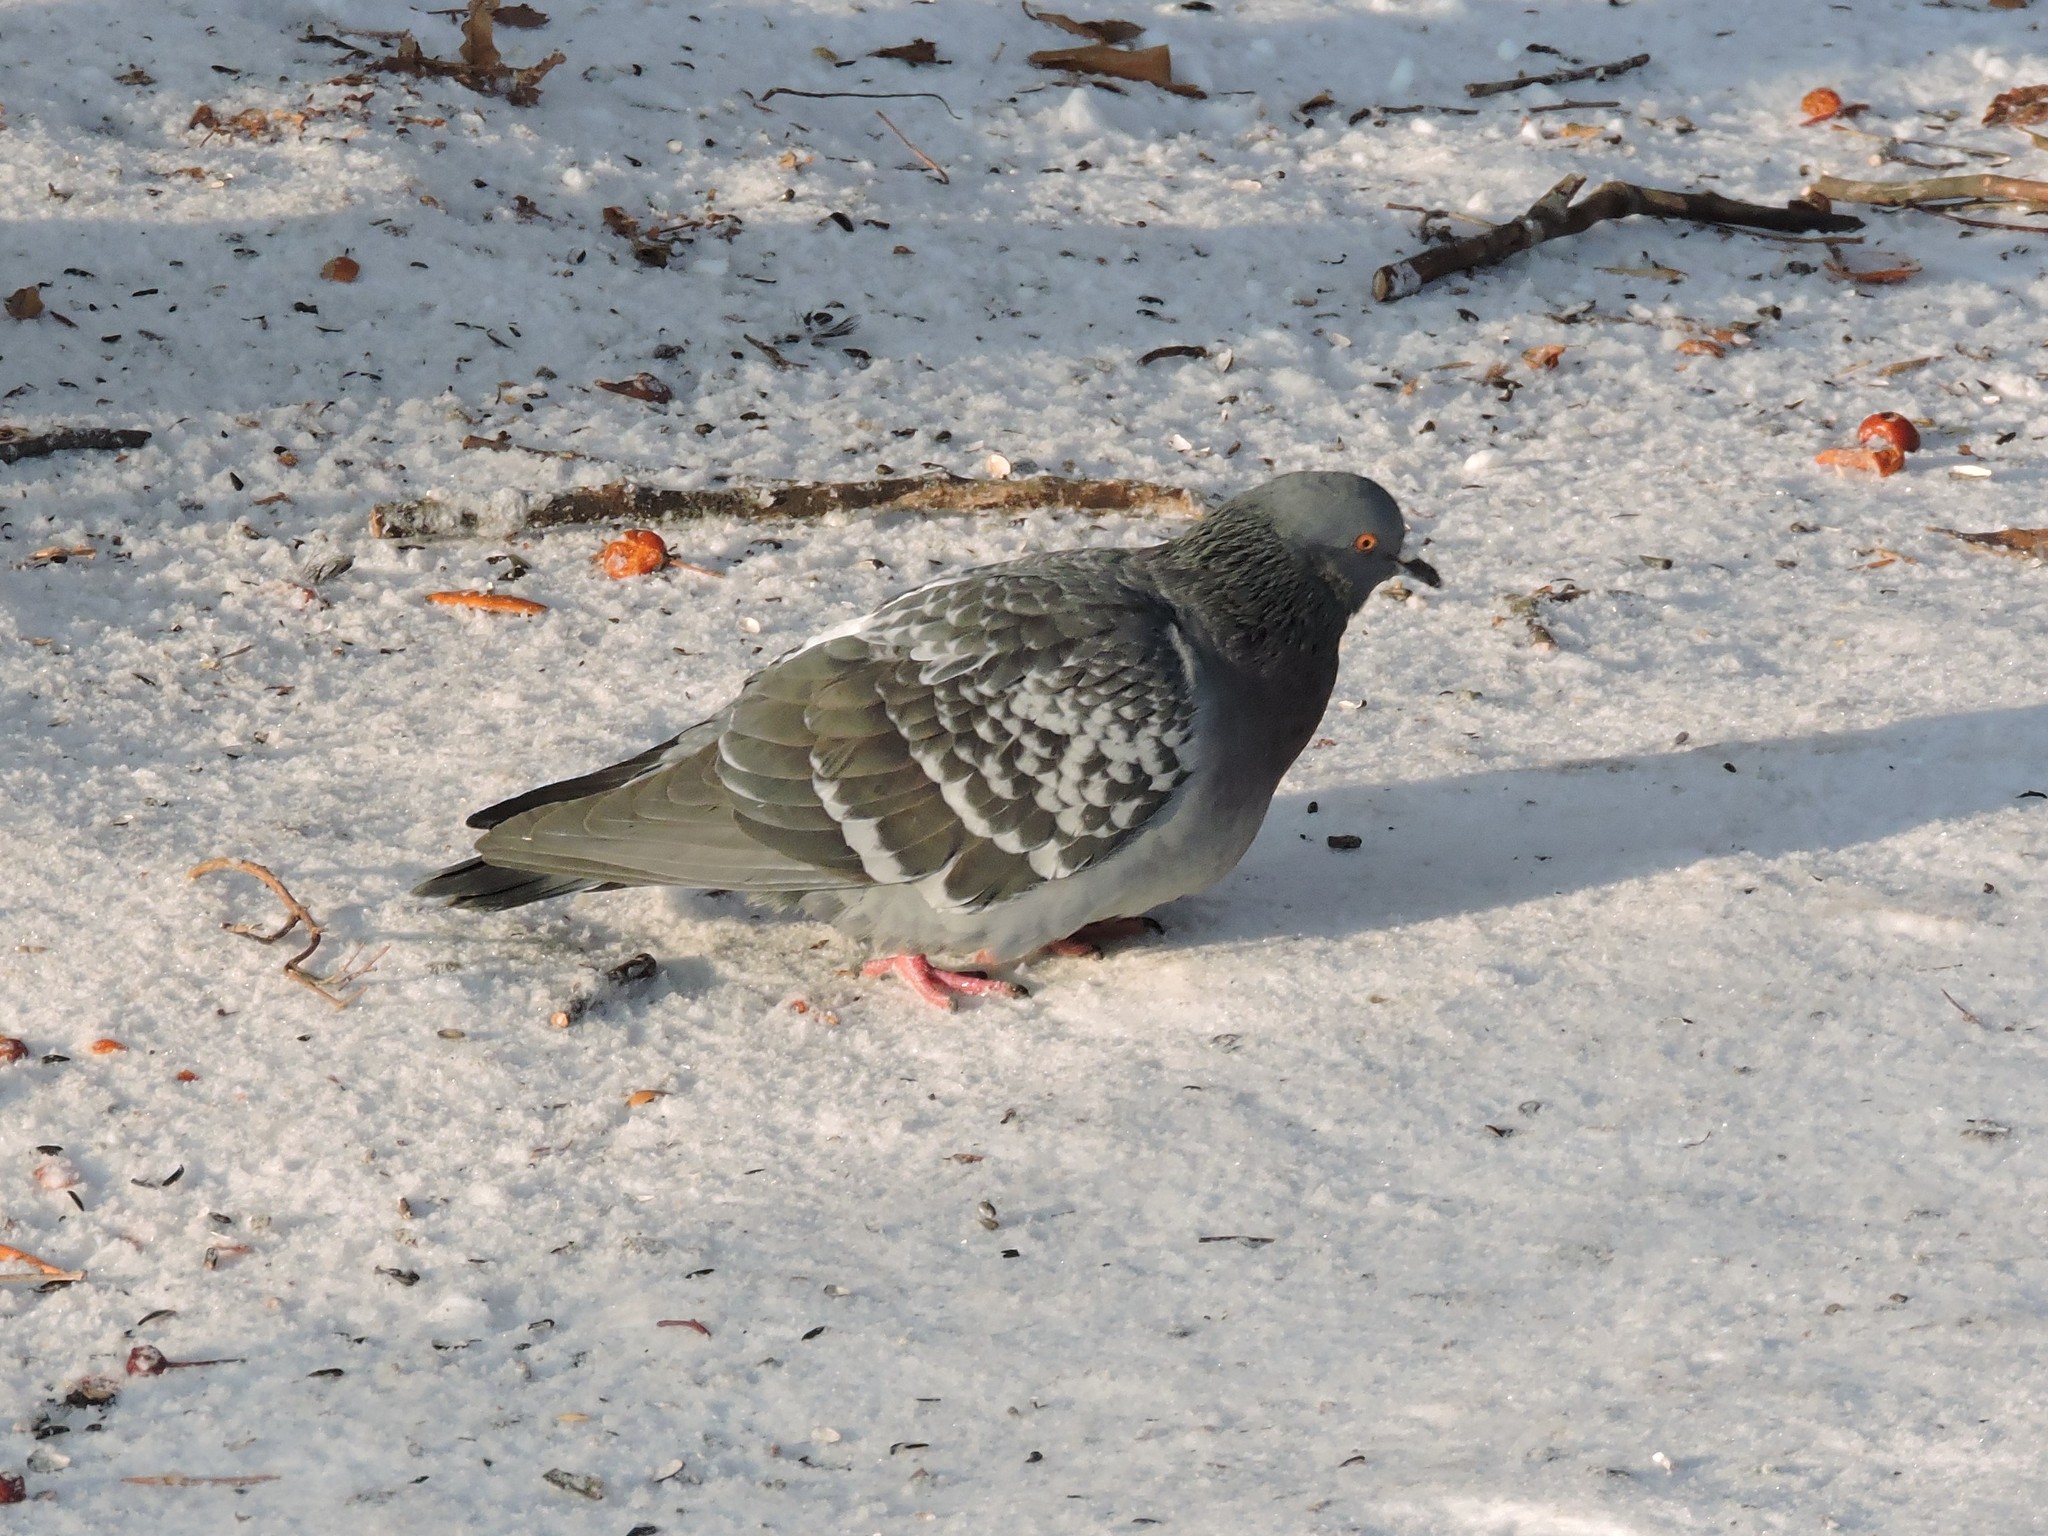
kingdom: Animalia
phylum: Chordata
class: Aves
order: Columbiformes
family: Columbidae
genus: Columba
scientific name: Columba livia
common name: Rock pigeon
